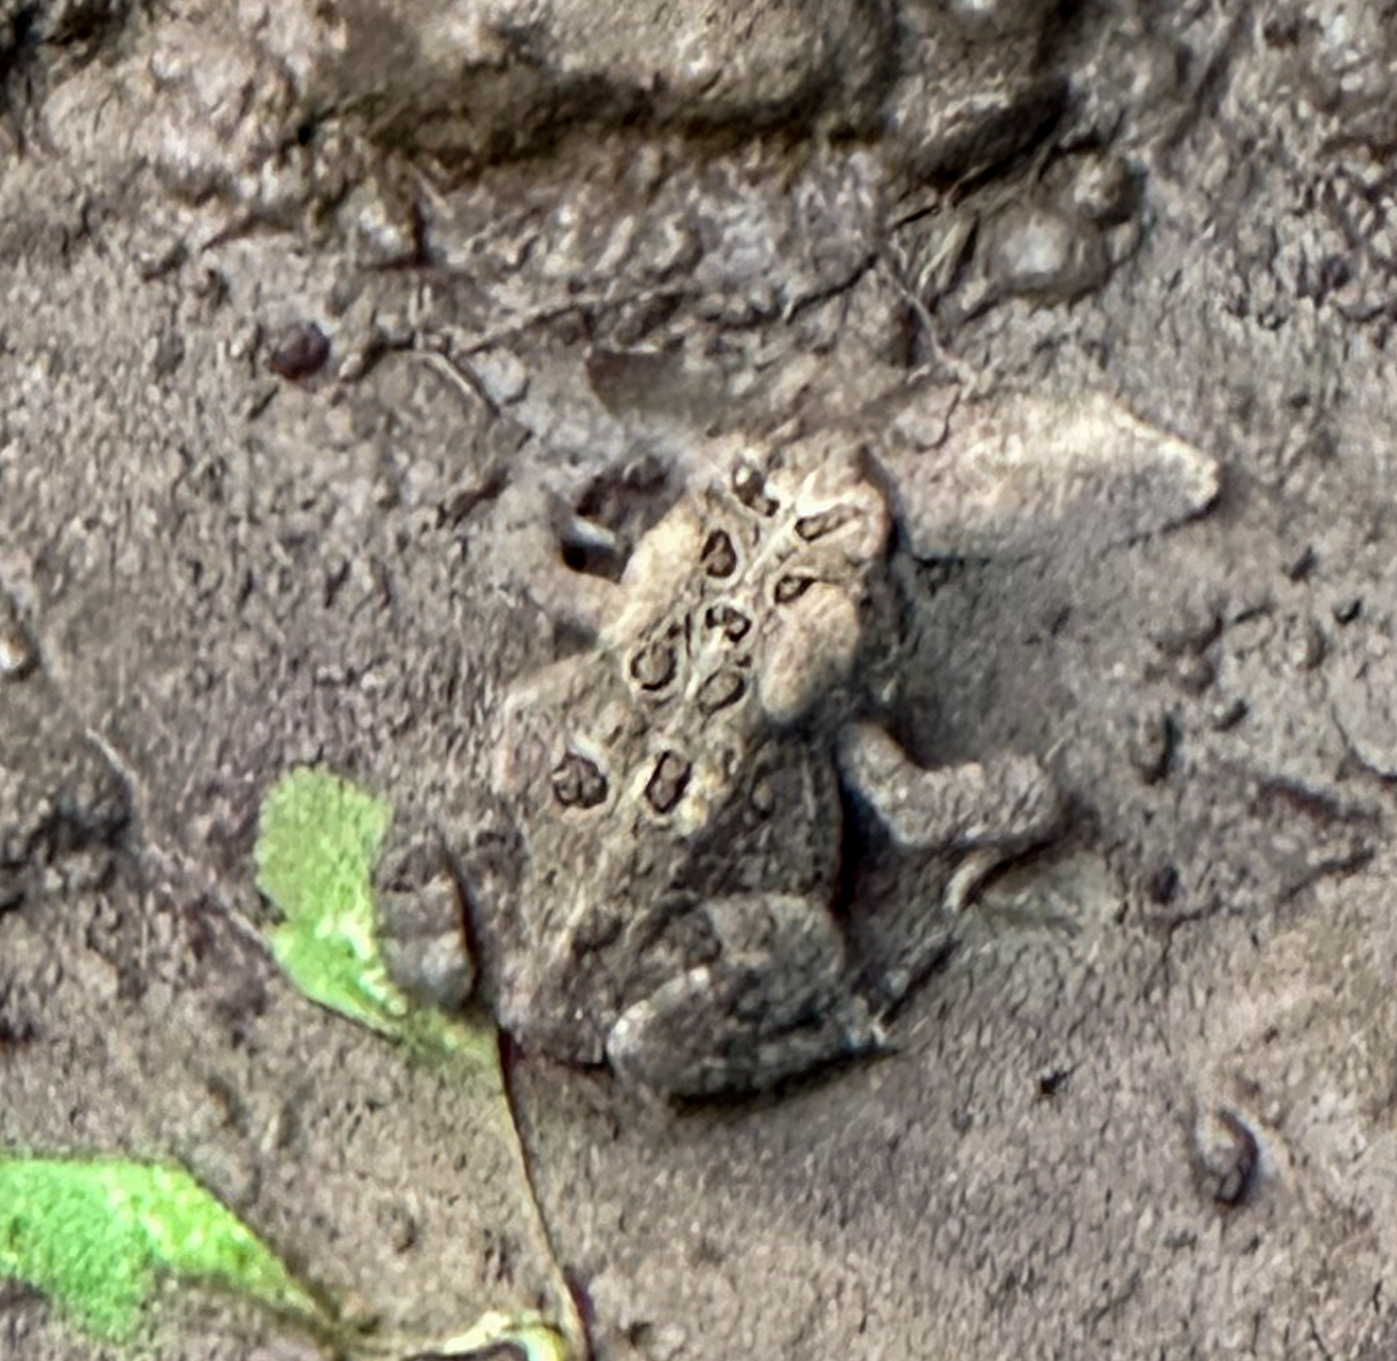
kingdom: Animalia
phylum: Chordata
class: Amphibia
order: Anura
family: Bufonidae
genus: Anaxyrus
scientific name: Anaxyrus americanus
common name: American toad
